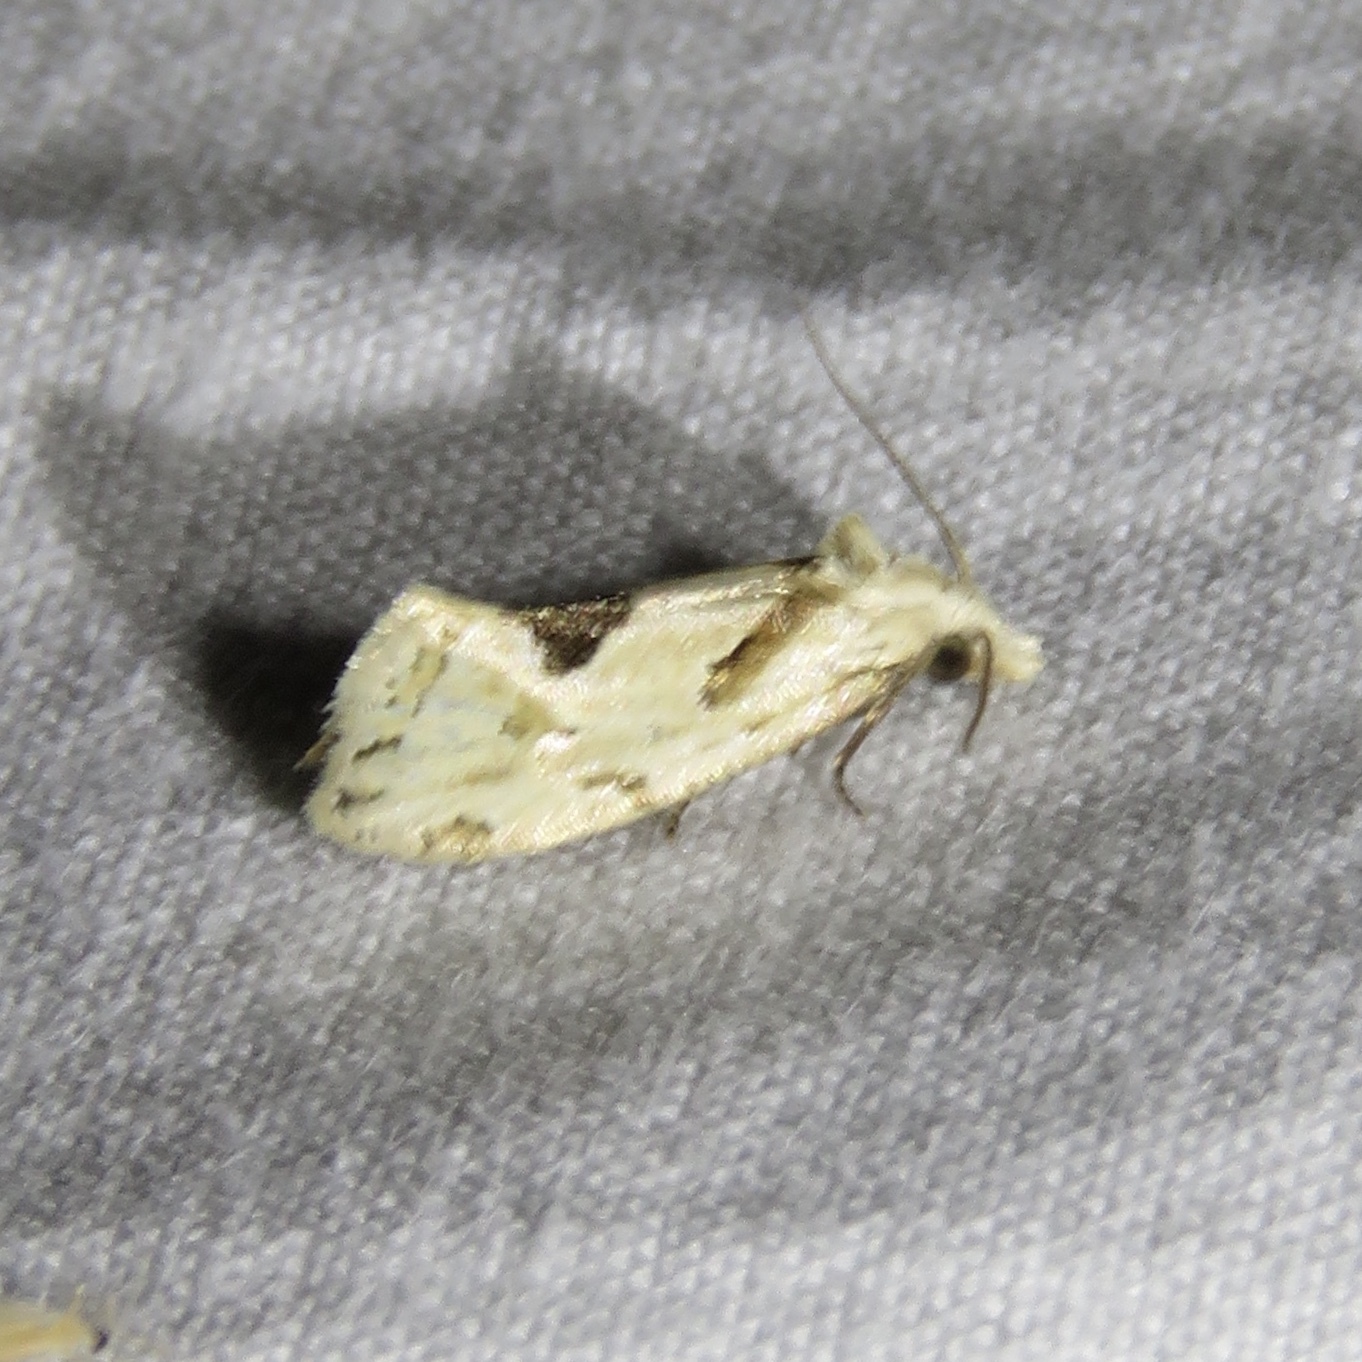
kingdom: Animalia
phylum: Arthropoda
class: Insecta
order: Lepidoptera
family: Tortricidae
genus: Aethes
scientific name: Aethes mymara
